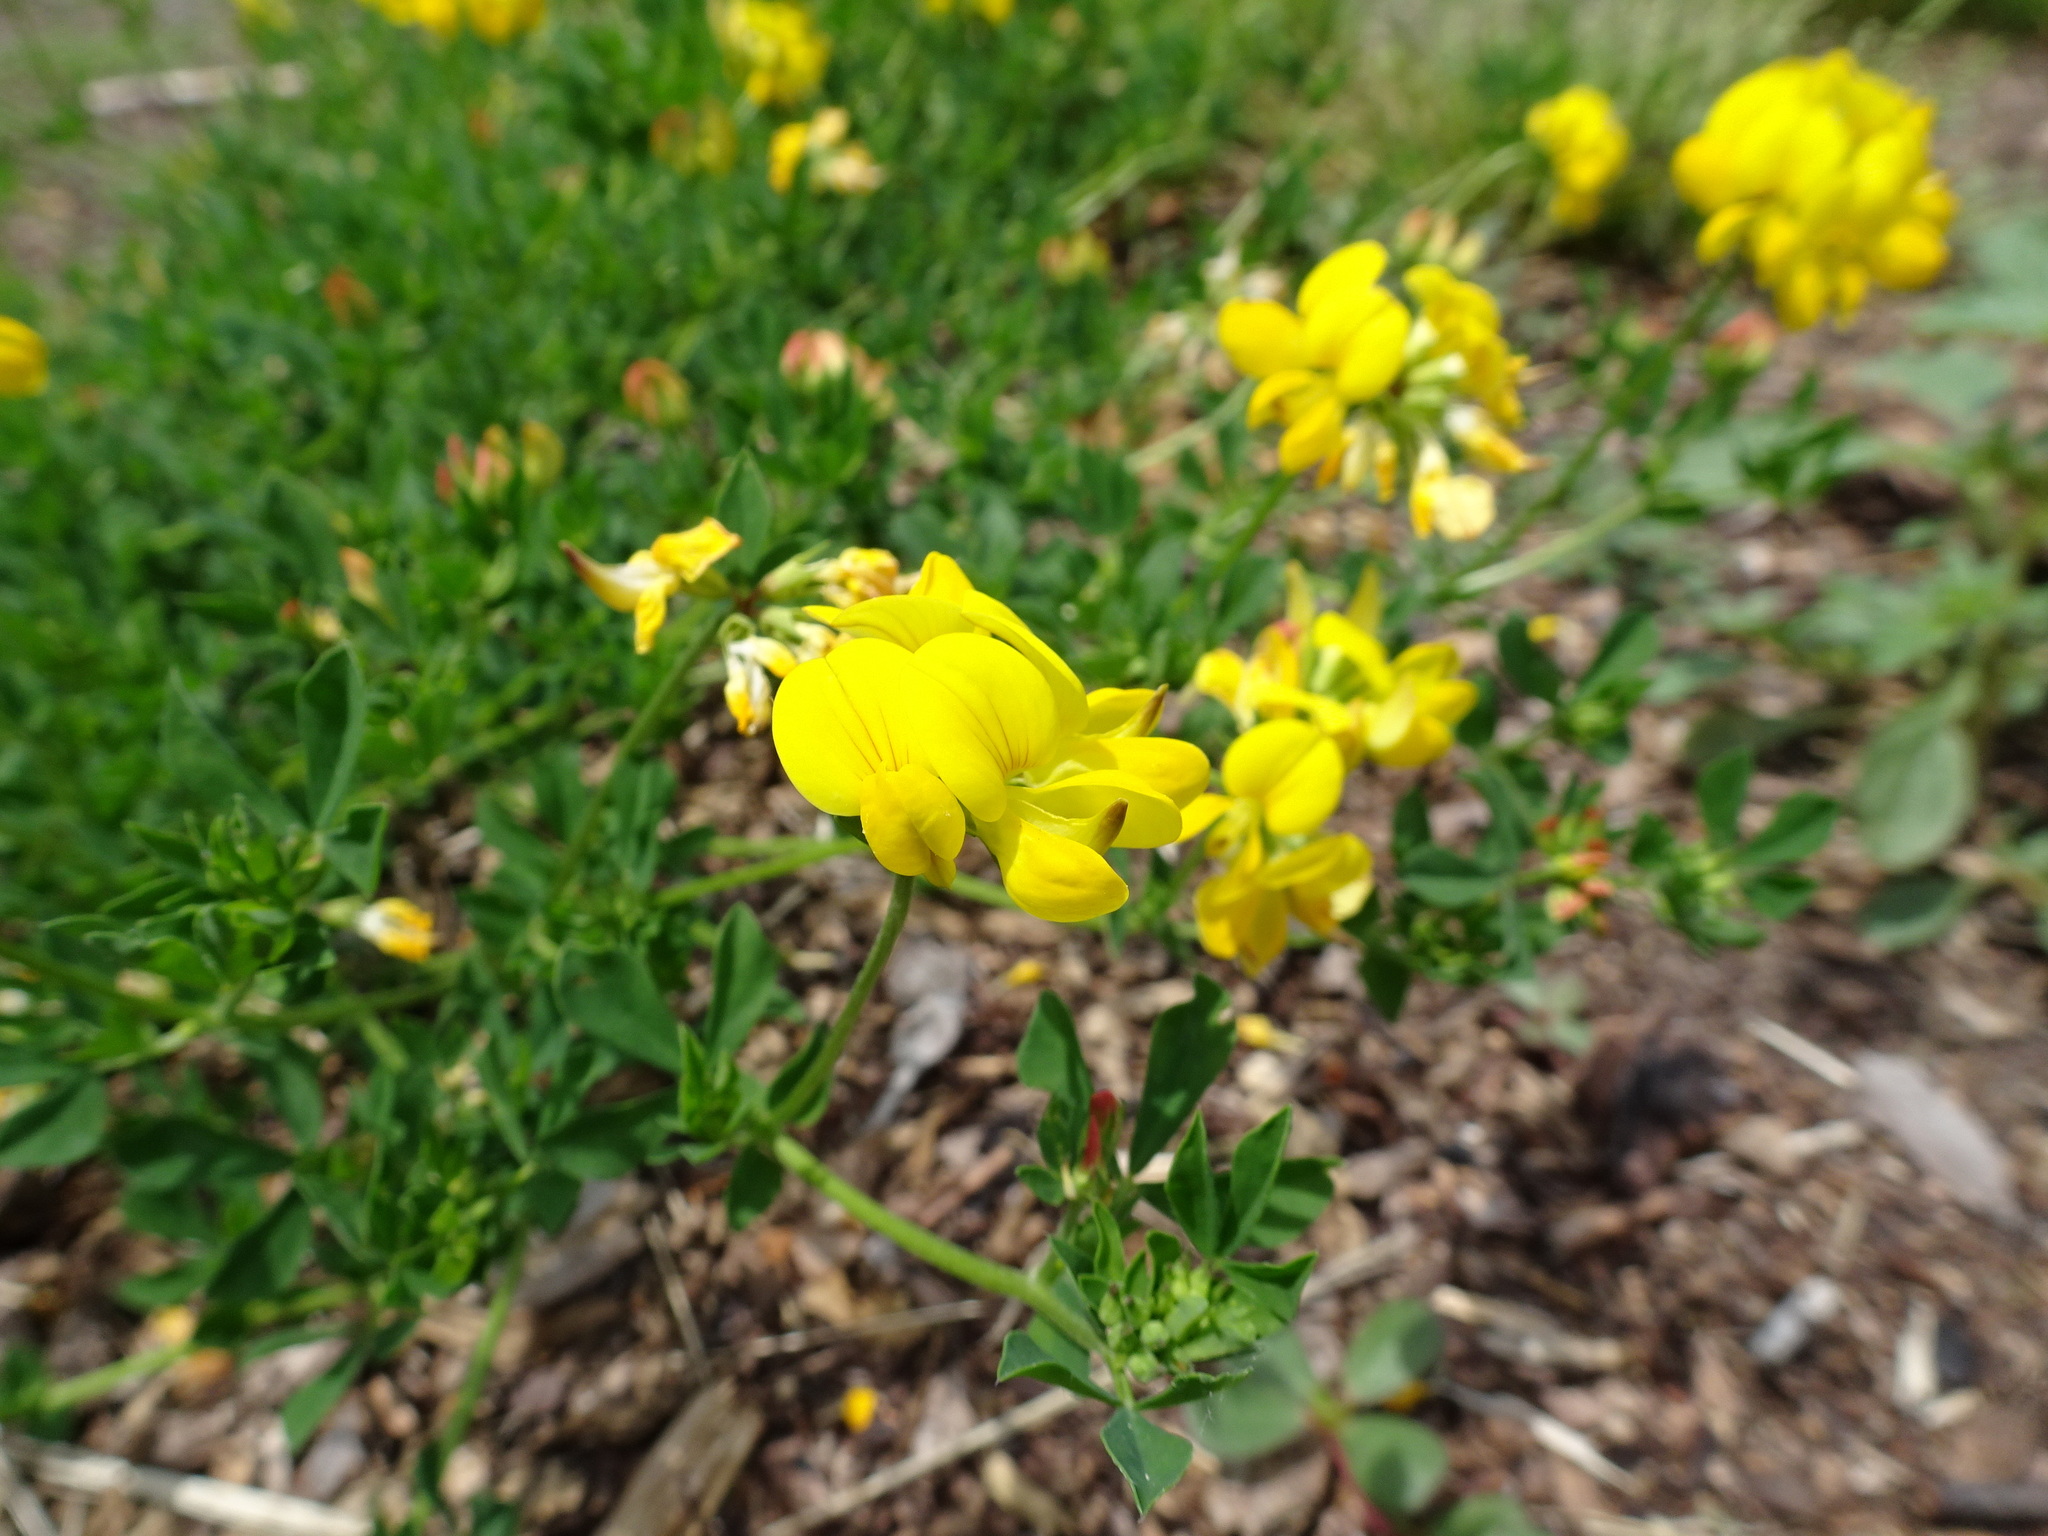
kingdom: Plantae
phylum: Tracheophyta
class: Magnoliopsida
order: Fabales
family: Fabaceae
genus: Lotus
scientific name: Lotus corniculatus
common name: Common bird's-foot-trefoil
